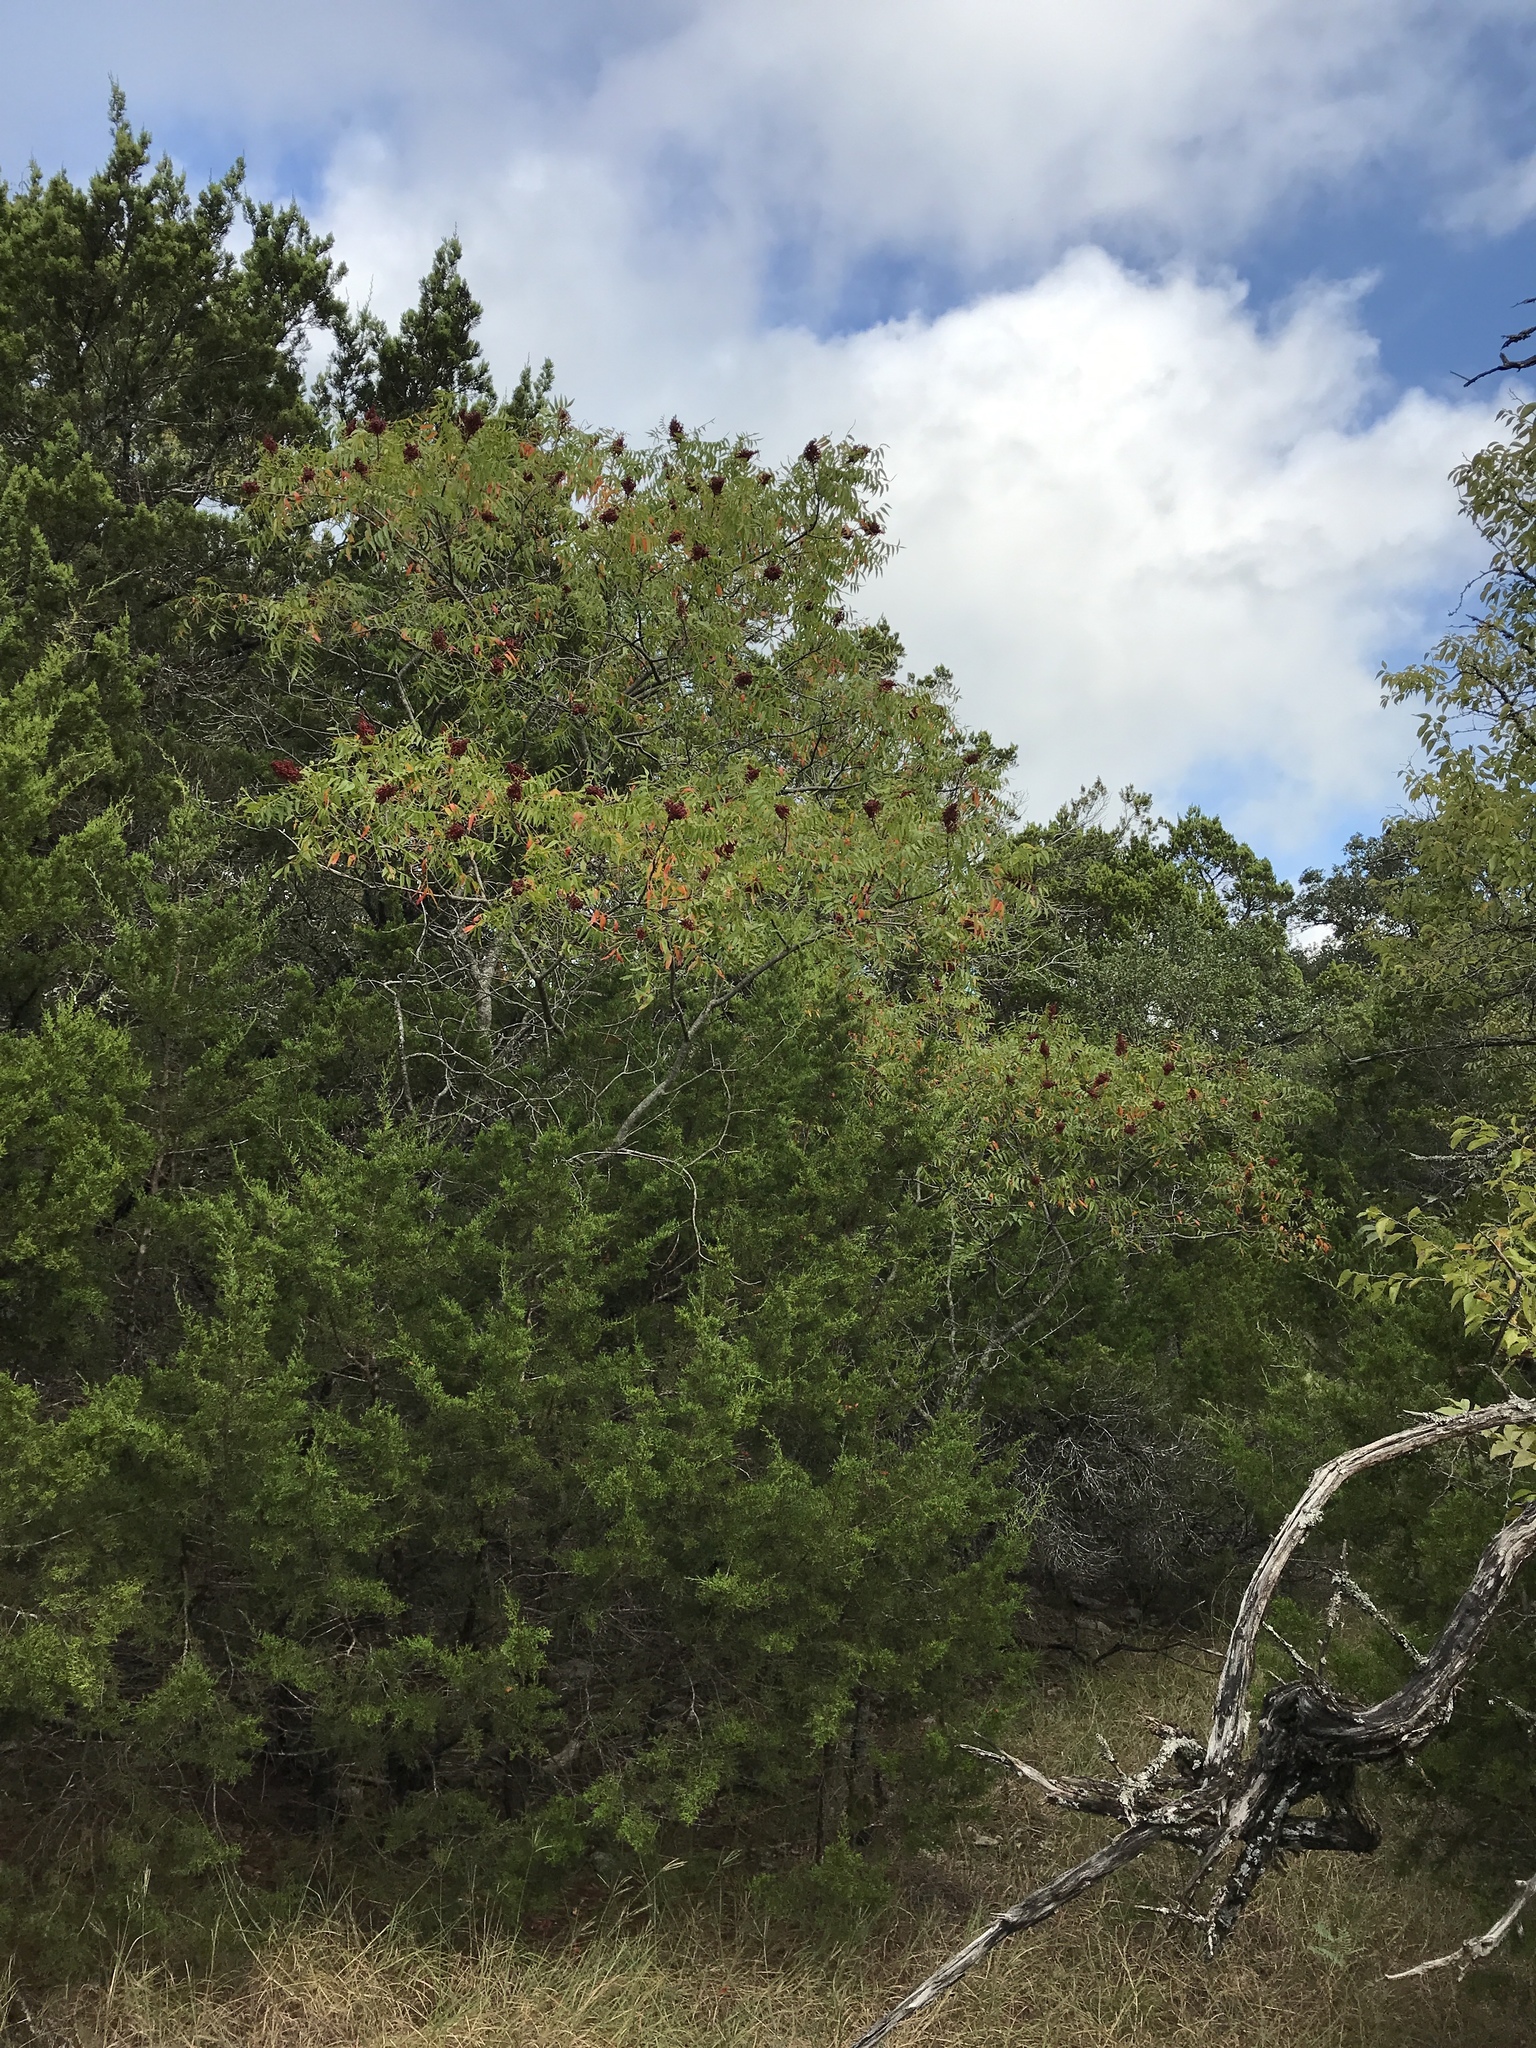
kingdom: Plantae
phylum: Tracheophyta
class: Magnoliopsida
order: Sapindales
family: Anacardiaceae
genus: Rhus
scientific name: Rhus lanceolata
